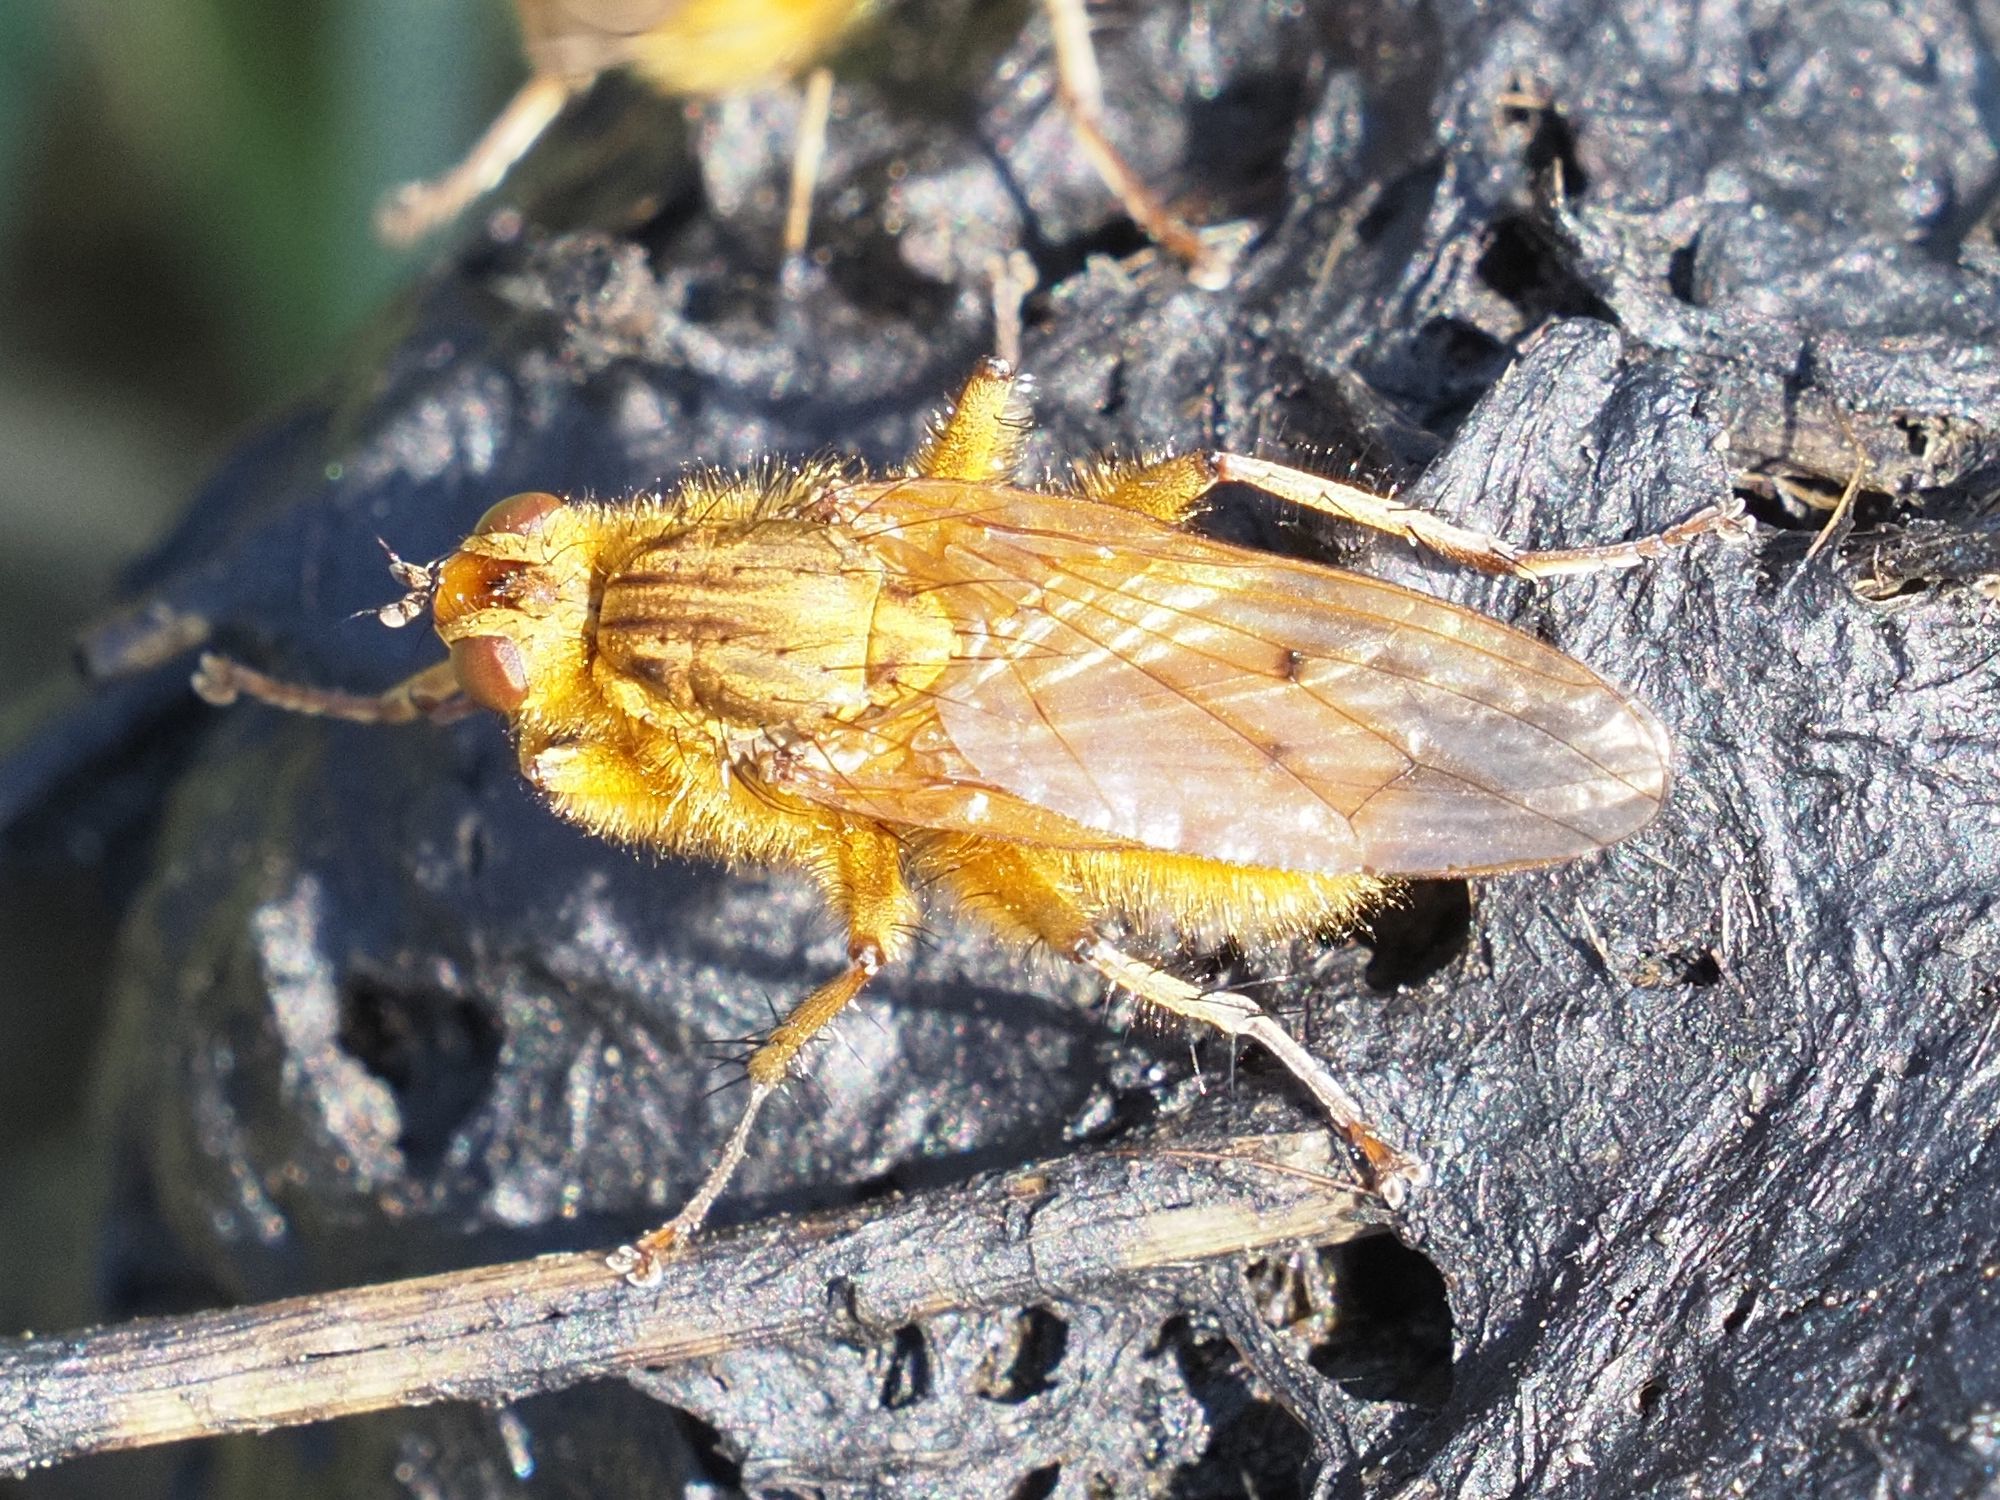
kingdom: Animalia
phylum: Arthropoda
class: Insecta
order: Diptera
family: Scathophagidae
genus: Scathophaga
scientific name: Scathophaga stercoraria
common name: Yellow dung fly
